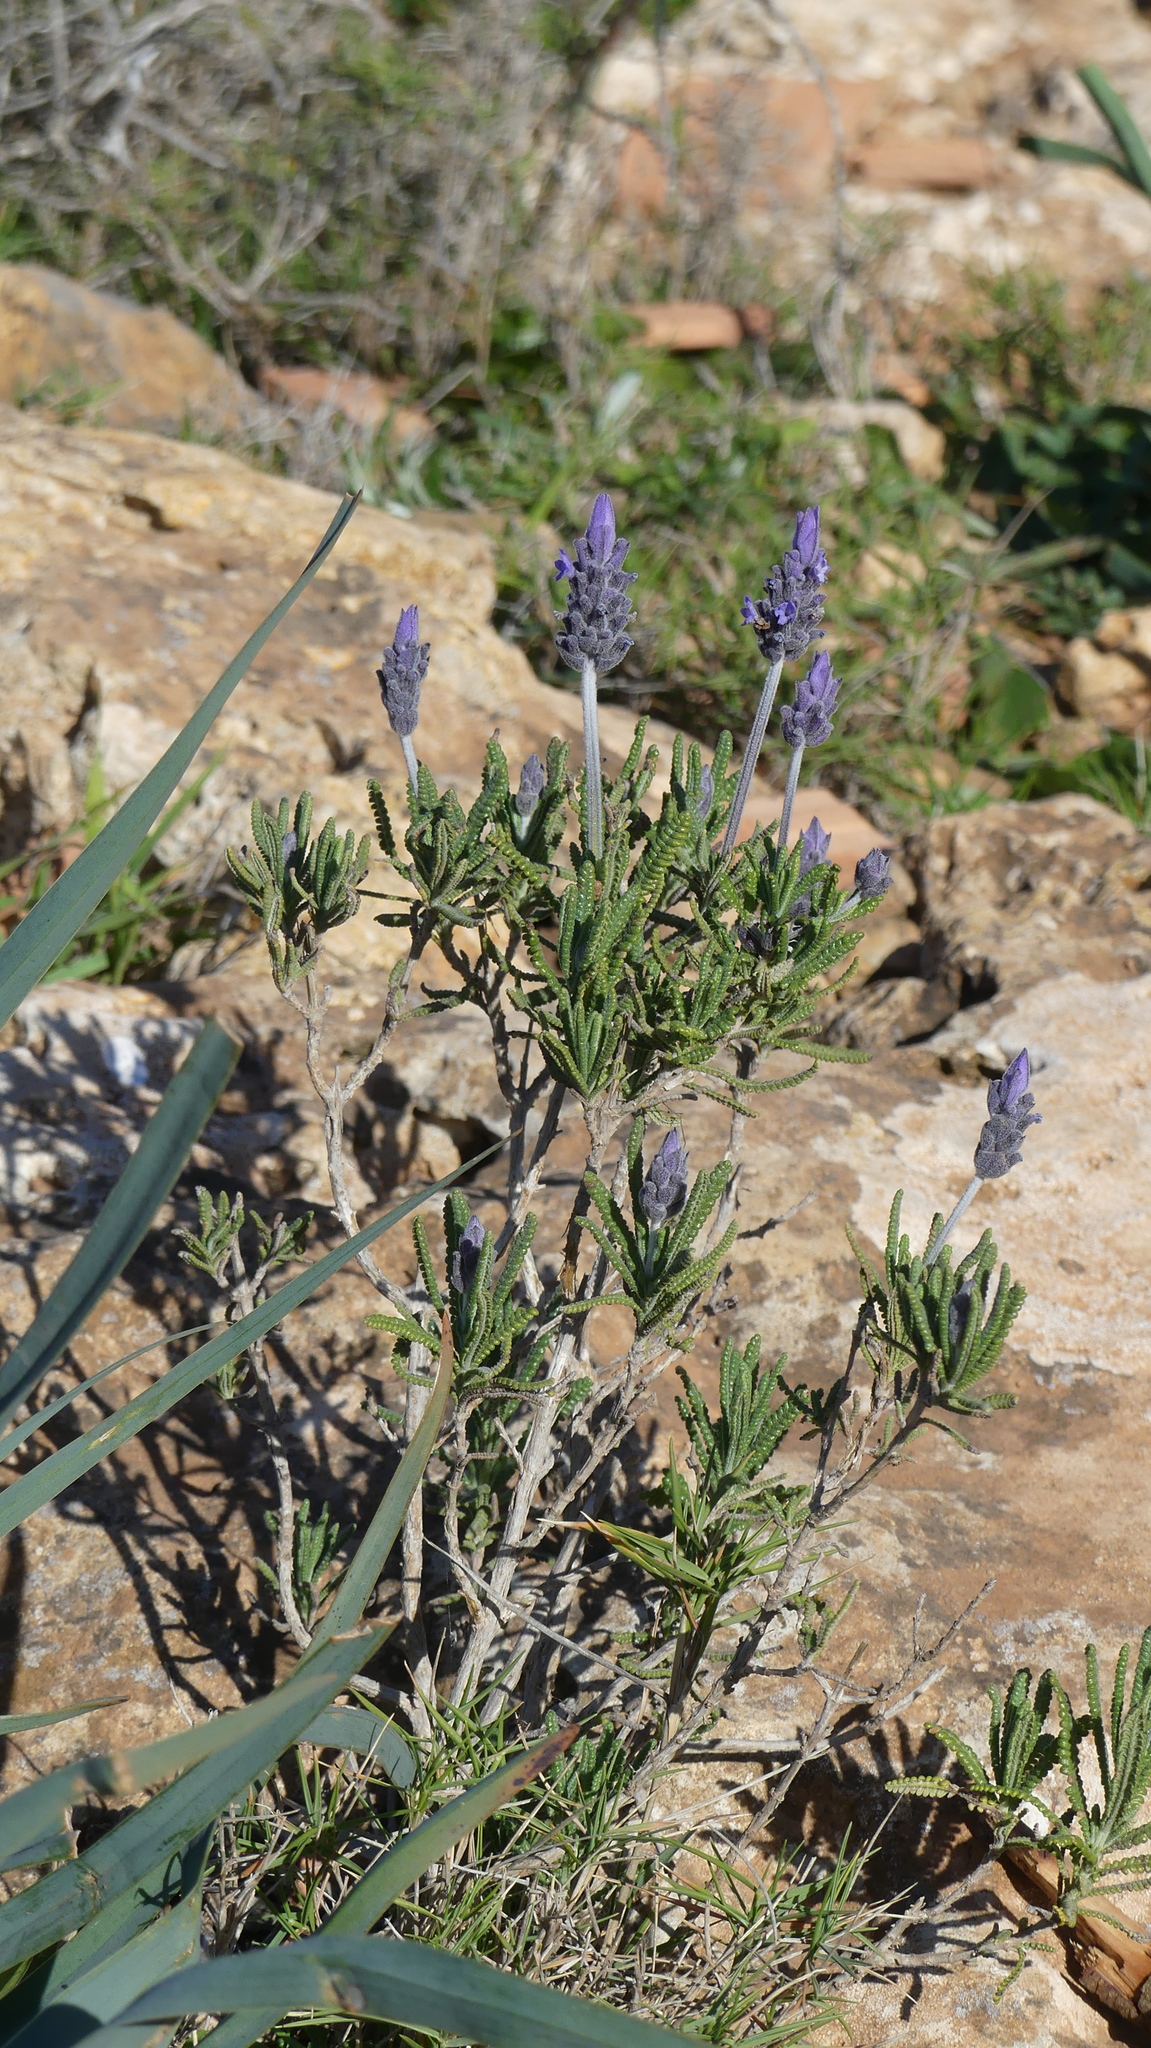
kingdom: Plantae
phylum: Tracheophyta
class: Magnoliopsida
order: Lamiales
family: Lamiaceae
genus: Lavandula
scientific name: Lavandula dentata
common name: French lavender
